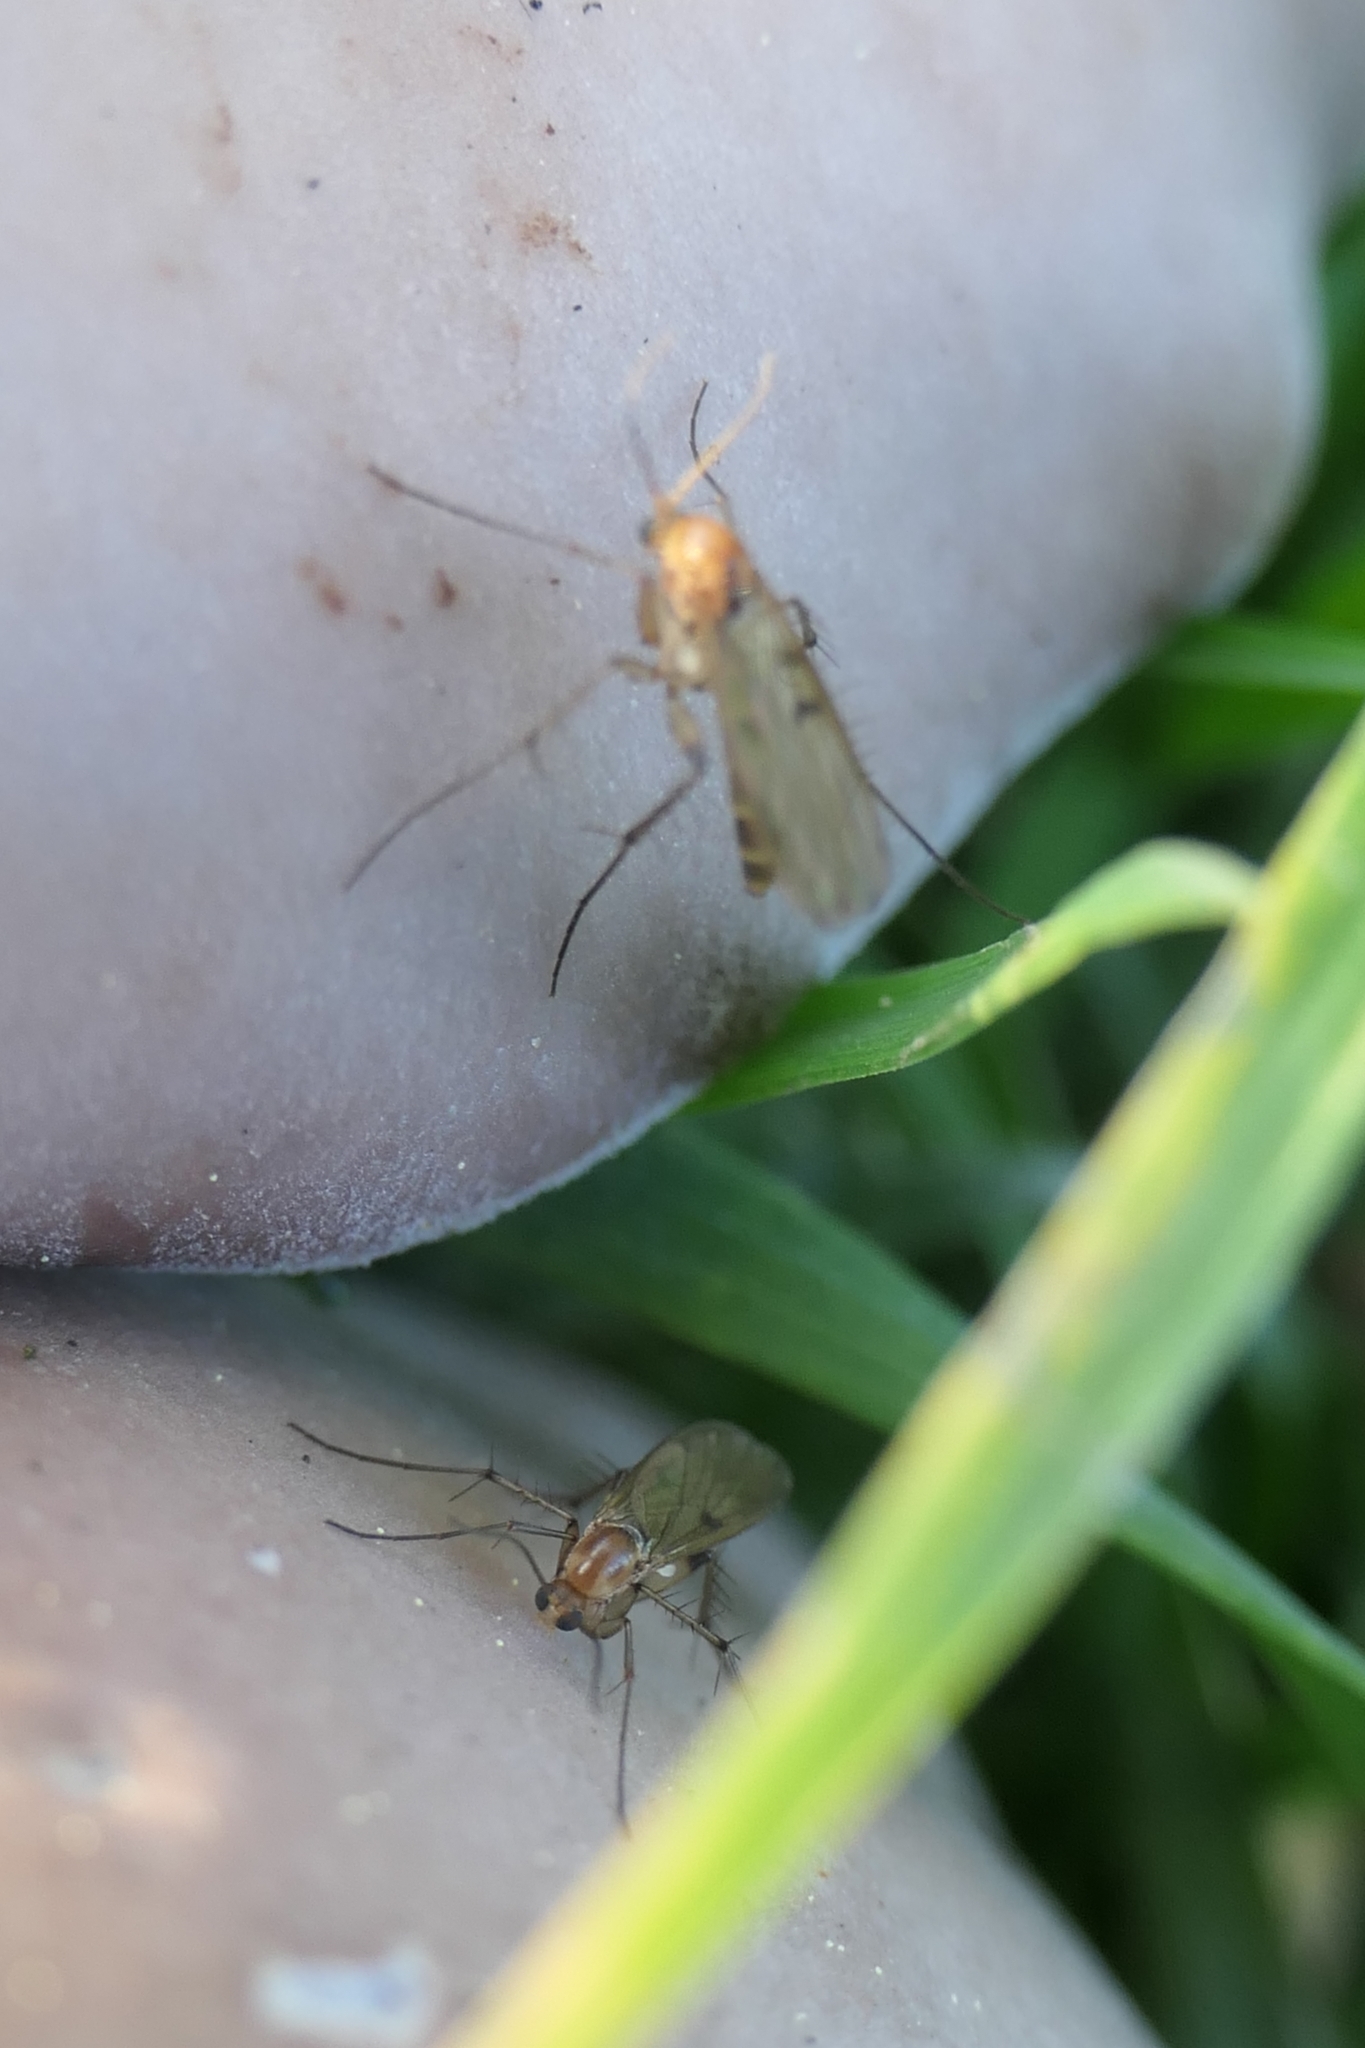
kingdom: Animalia
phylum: Arthropoda
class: Insecta
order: Diptera
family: Mycetophilidae
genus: Mycetophila
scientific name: Mycetophila marginepunctata
